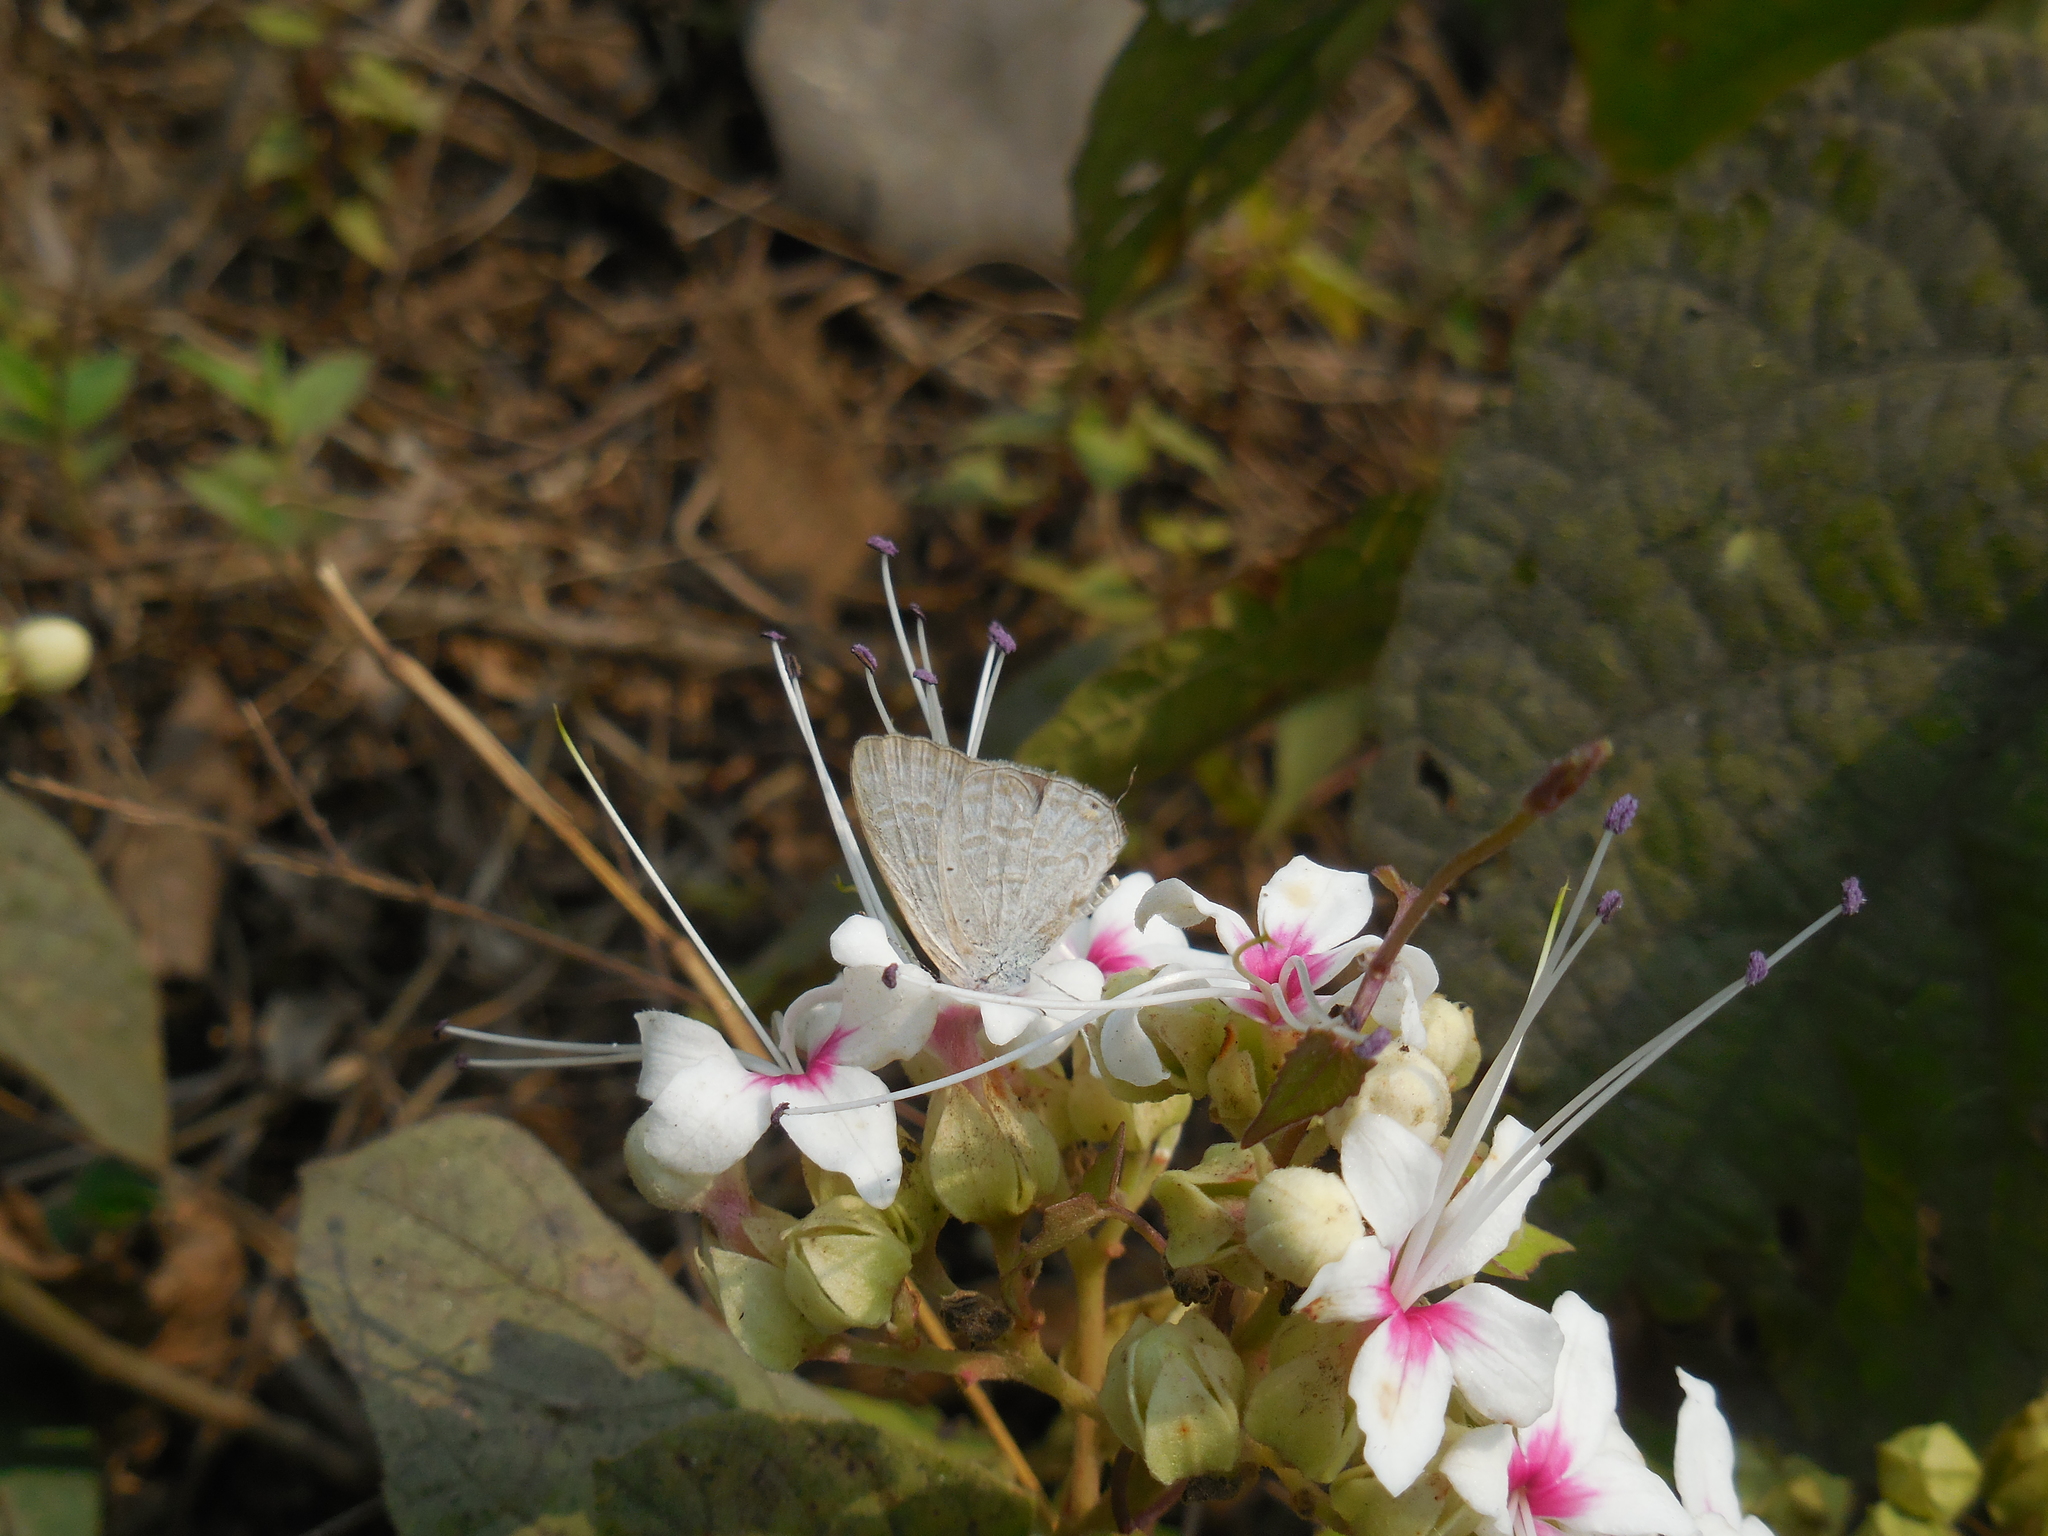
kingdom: Animalia
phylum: Arthropoda
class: Insecta
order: Lepidoptera
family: Lycaenidae
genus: Catochrysops
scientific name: Catochrysops strabo
